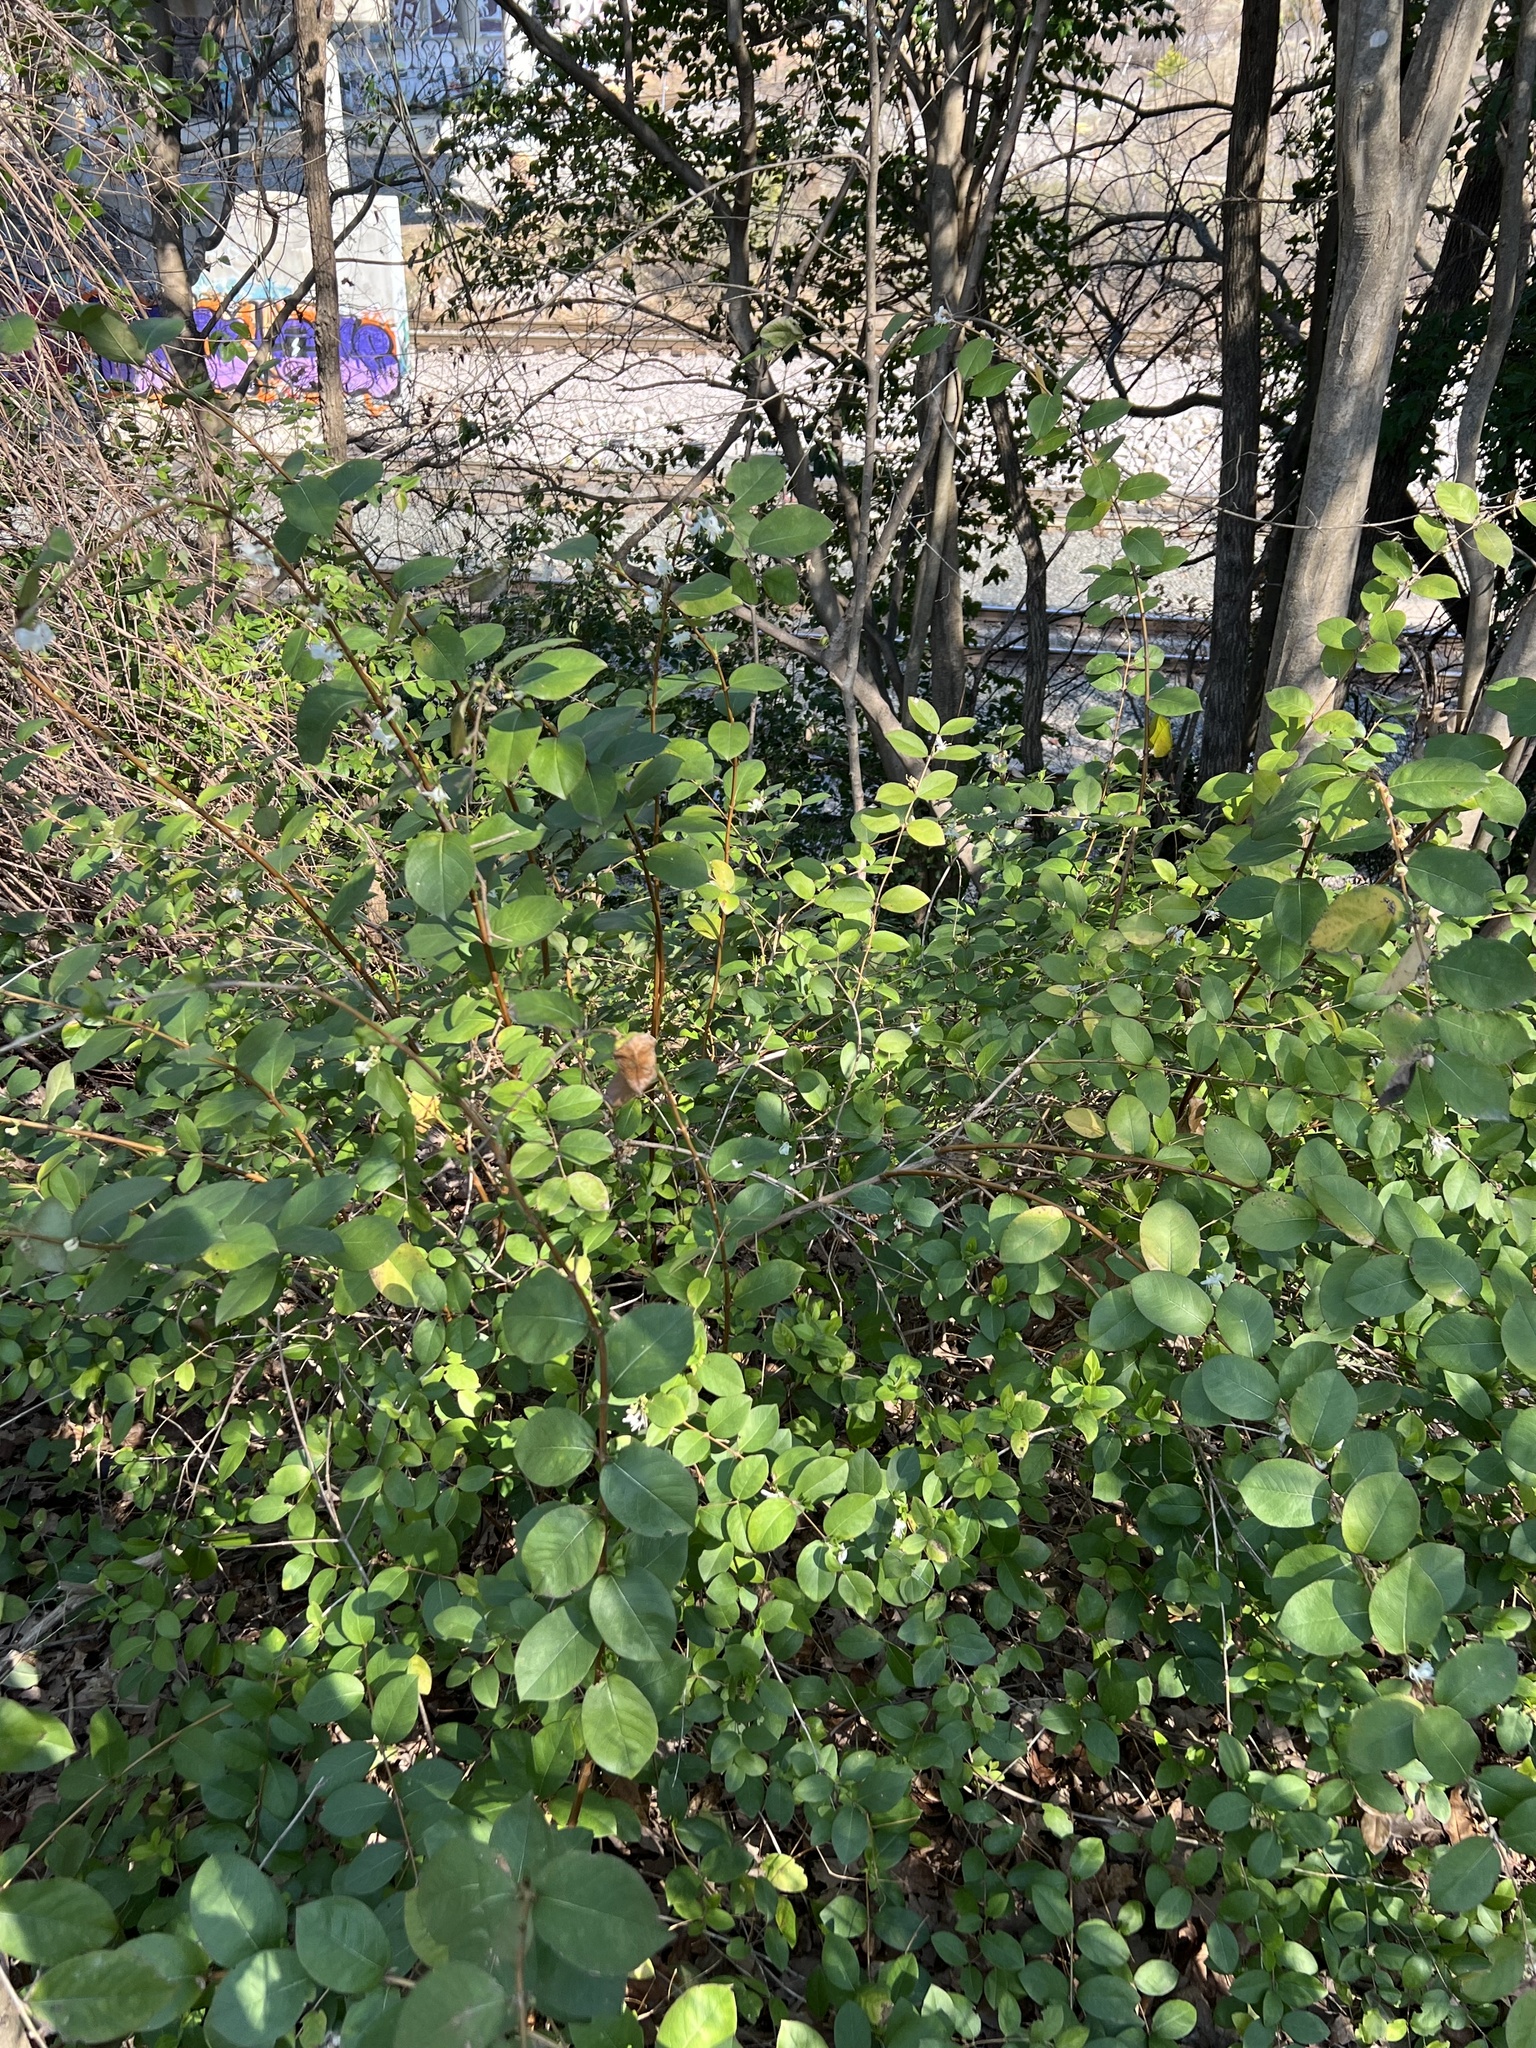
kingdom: Plantae
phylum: Tracheophyta
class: Magnoliopsida
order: Dipsacales
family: Caprifoliaceae
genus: Lonicera
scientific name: Lonicera fragrantissima
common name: Fragrant honeysuckle
